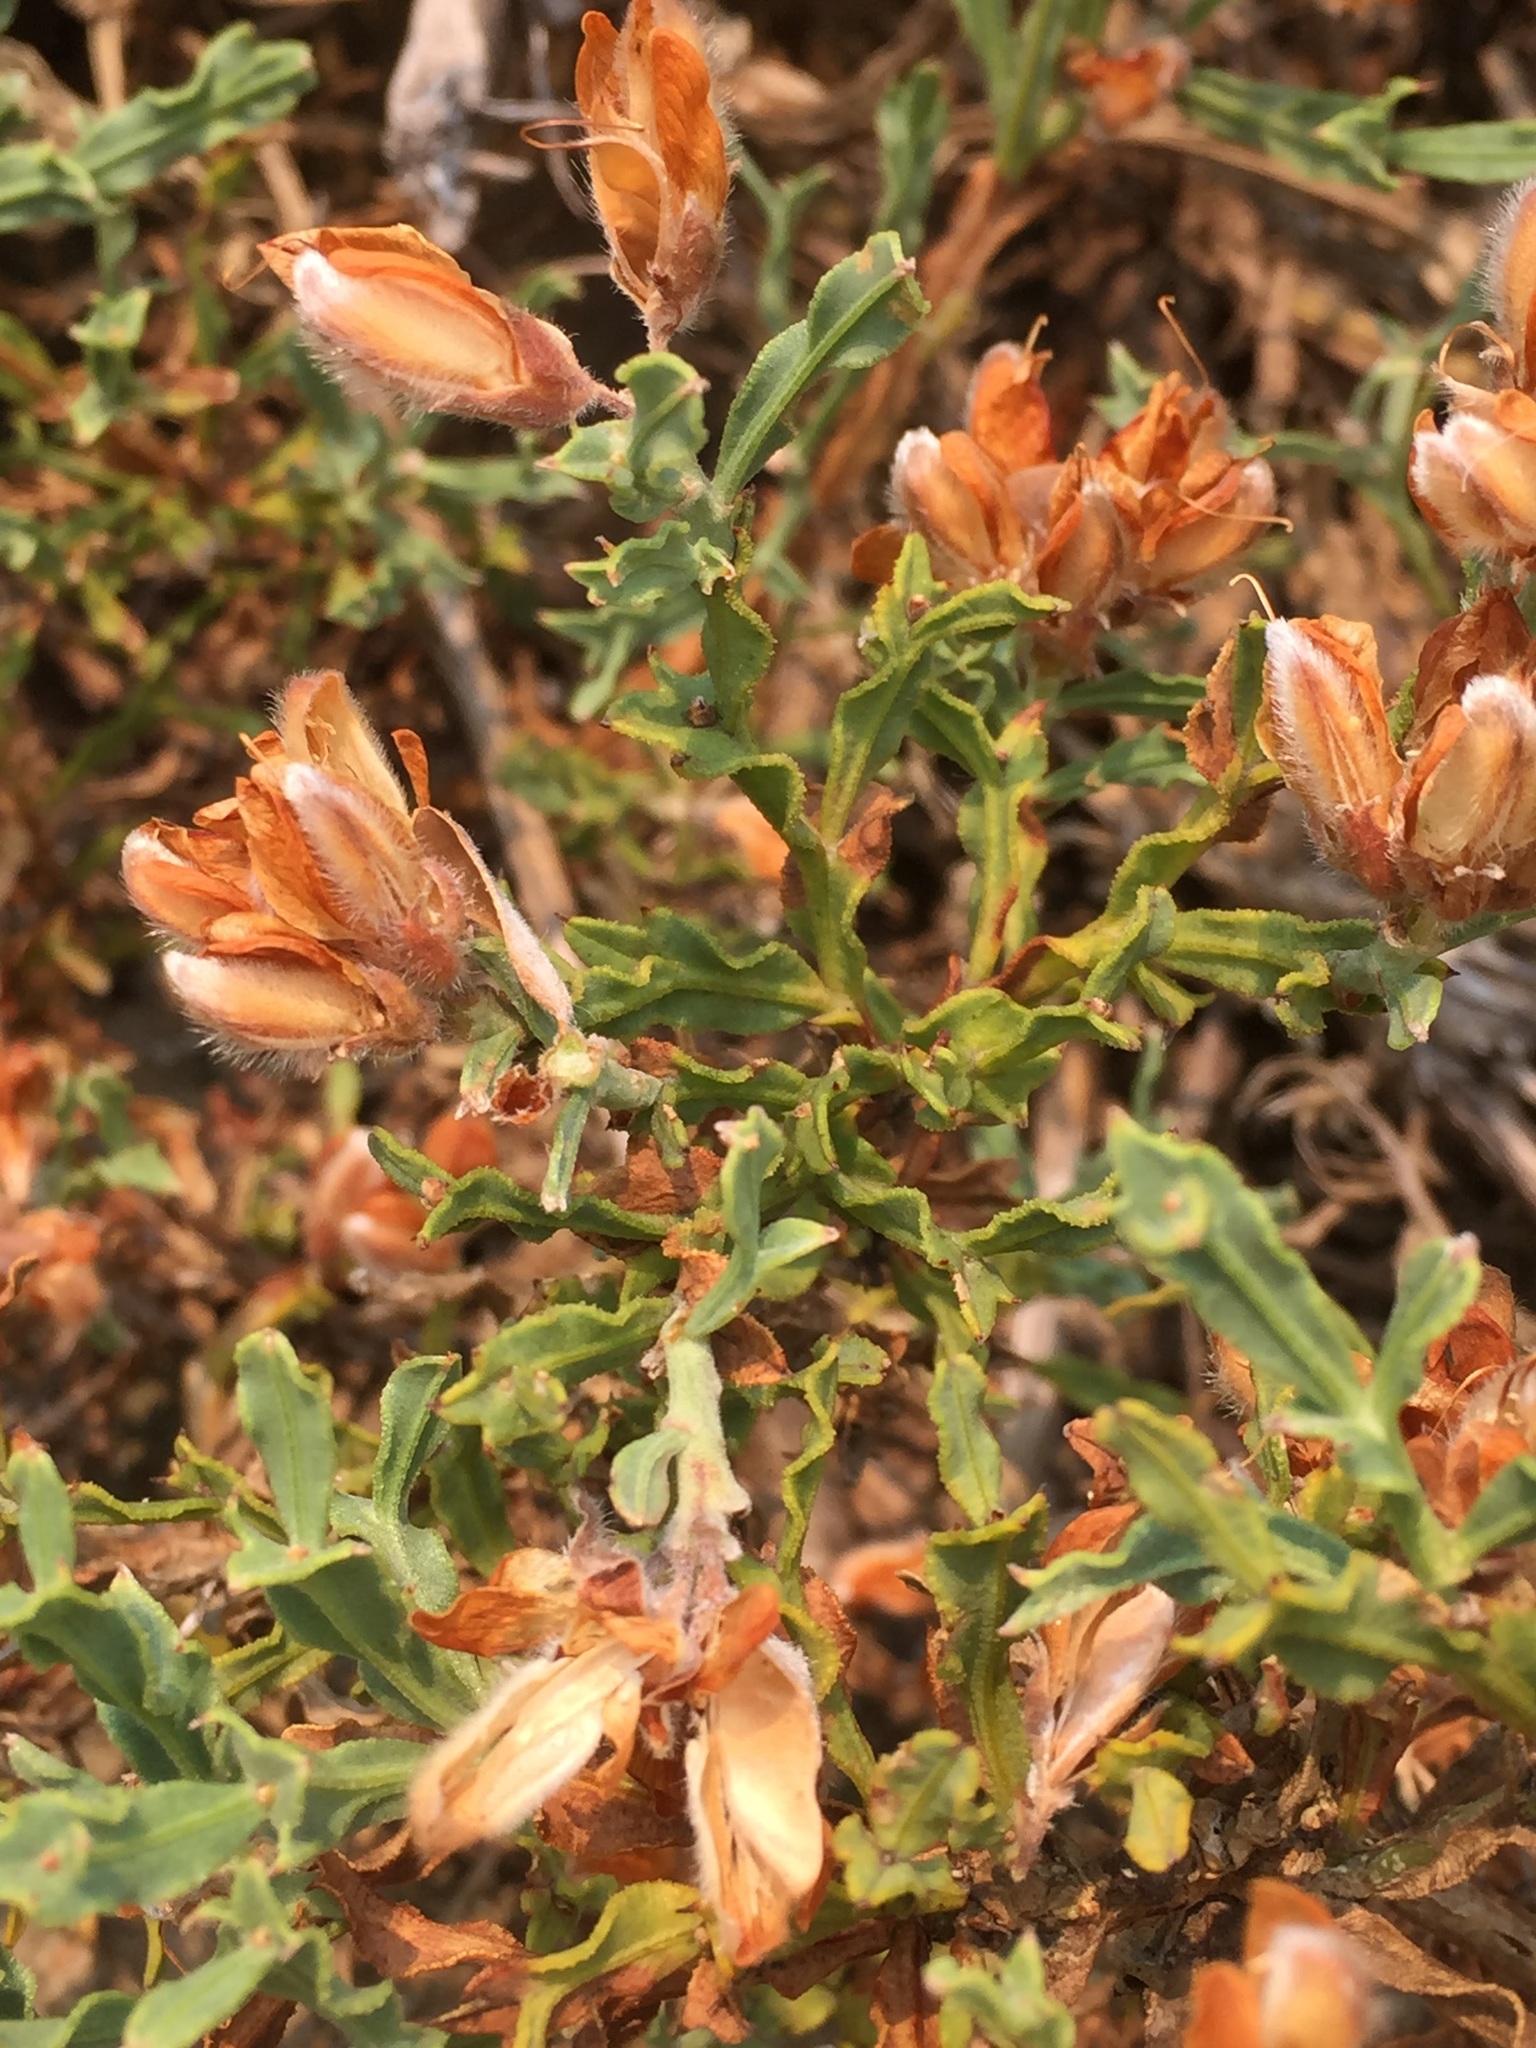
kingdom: Plantae
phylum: Tracheophyta
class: Magnoliopsida
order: Fabales
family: Fabaceae
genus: Genista
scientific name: Genista tridentata
